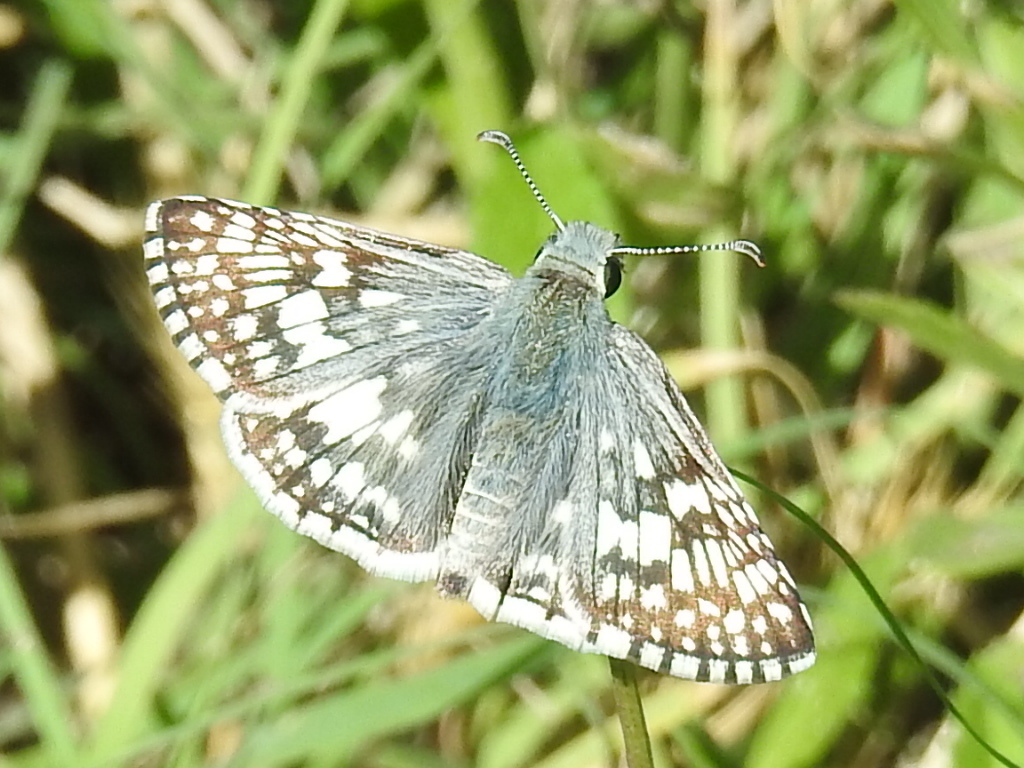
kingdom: Animalia
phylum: Arthropoda
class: Insecta
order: Lepidoptera
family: Hesperiidae
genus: Burnsius
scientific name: Burnsius
